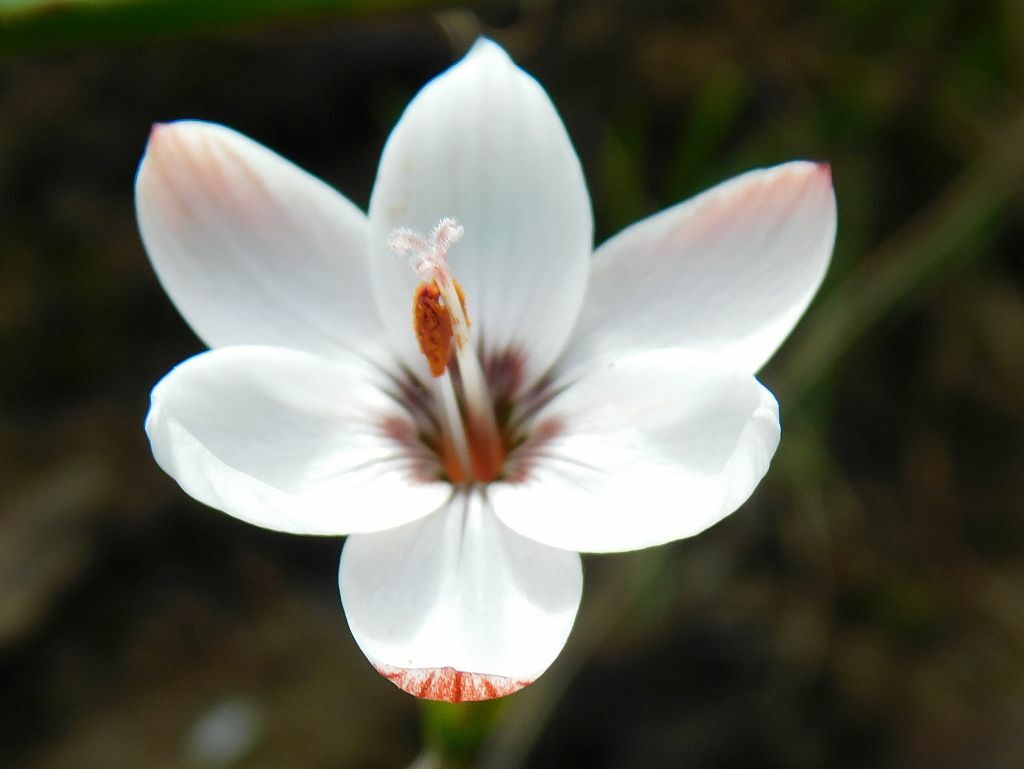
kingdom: Plantae
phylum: Tracheophyta
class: Liliopsida
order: Asparagales
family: Iridaceae
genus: Geissorhiza
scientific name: Geissorhiza ovata
